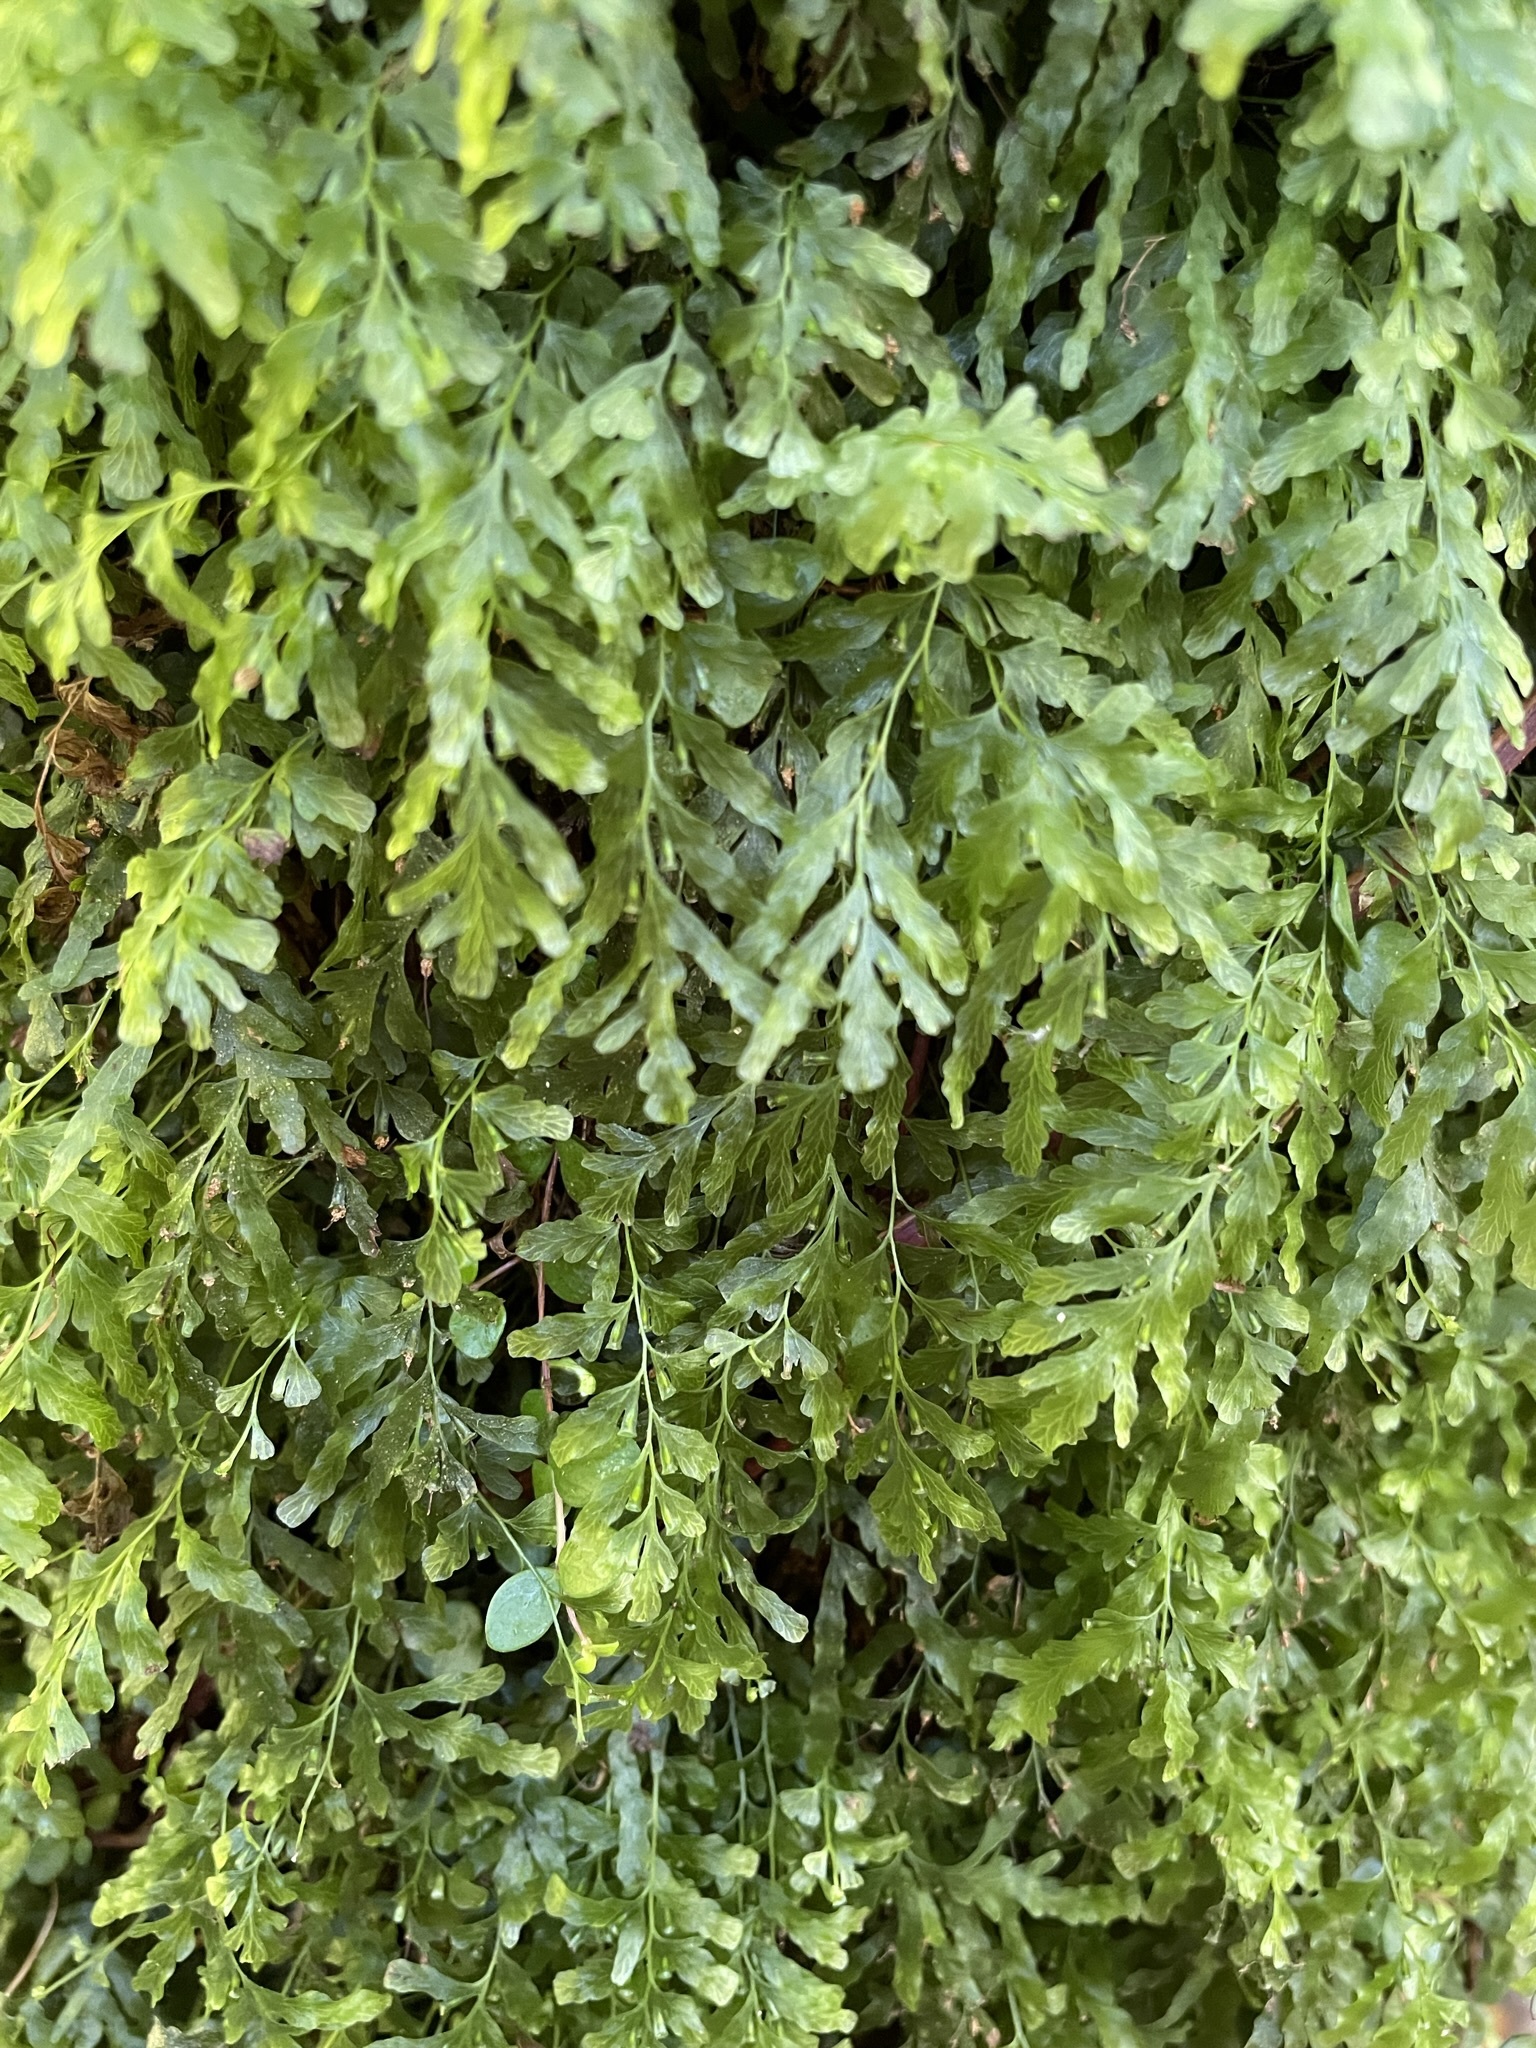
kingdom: Plantae
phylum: Tracheophyta
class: Polypodiopsida
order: Hymenophyllales
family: Hymenophyllaceae
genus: Polyphlebium
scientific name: Polyphlebium venosum
